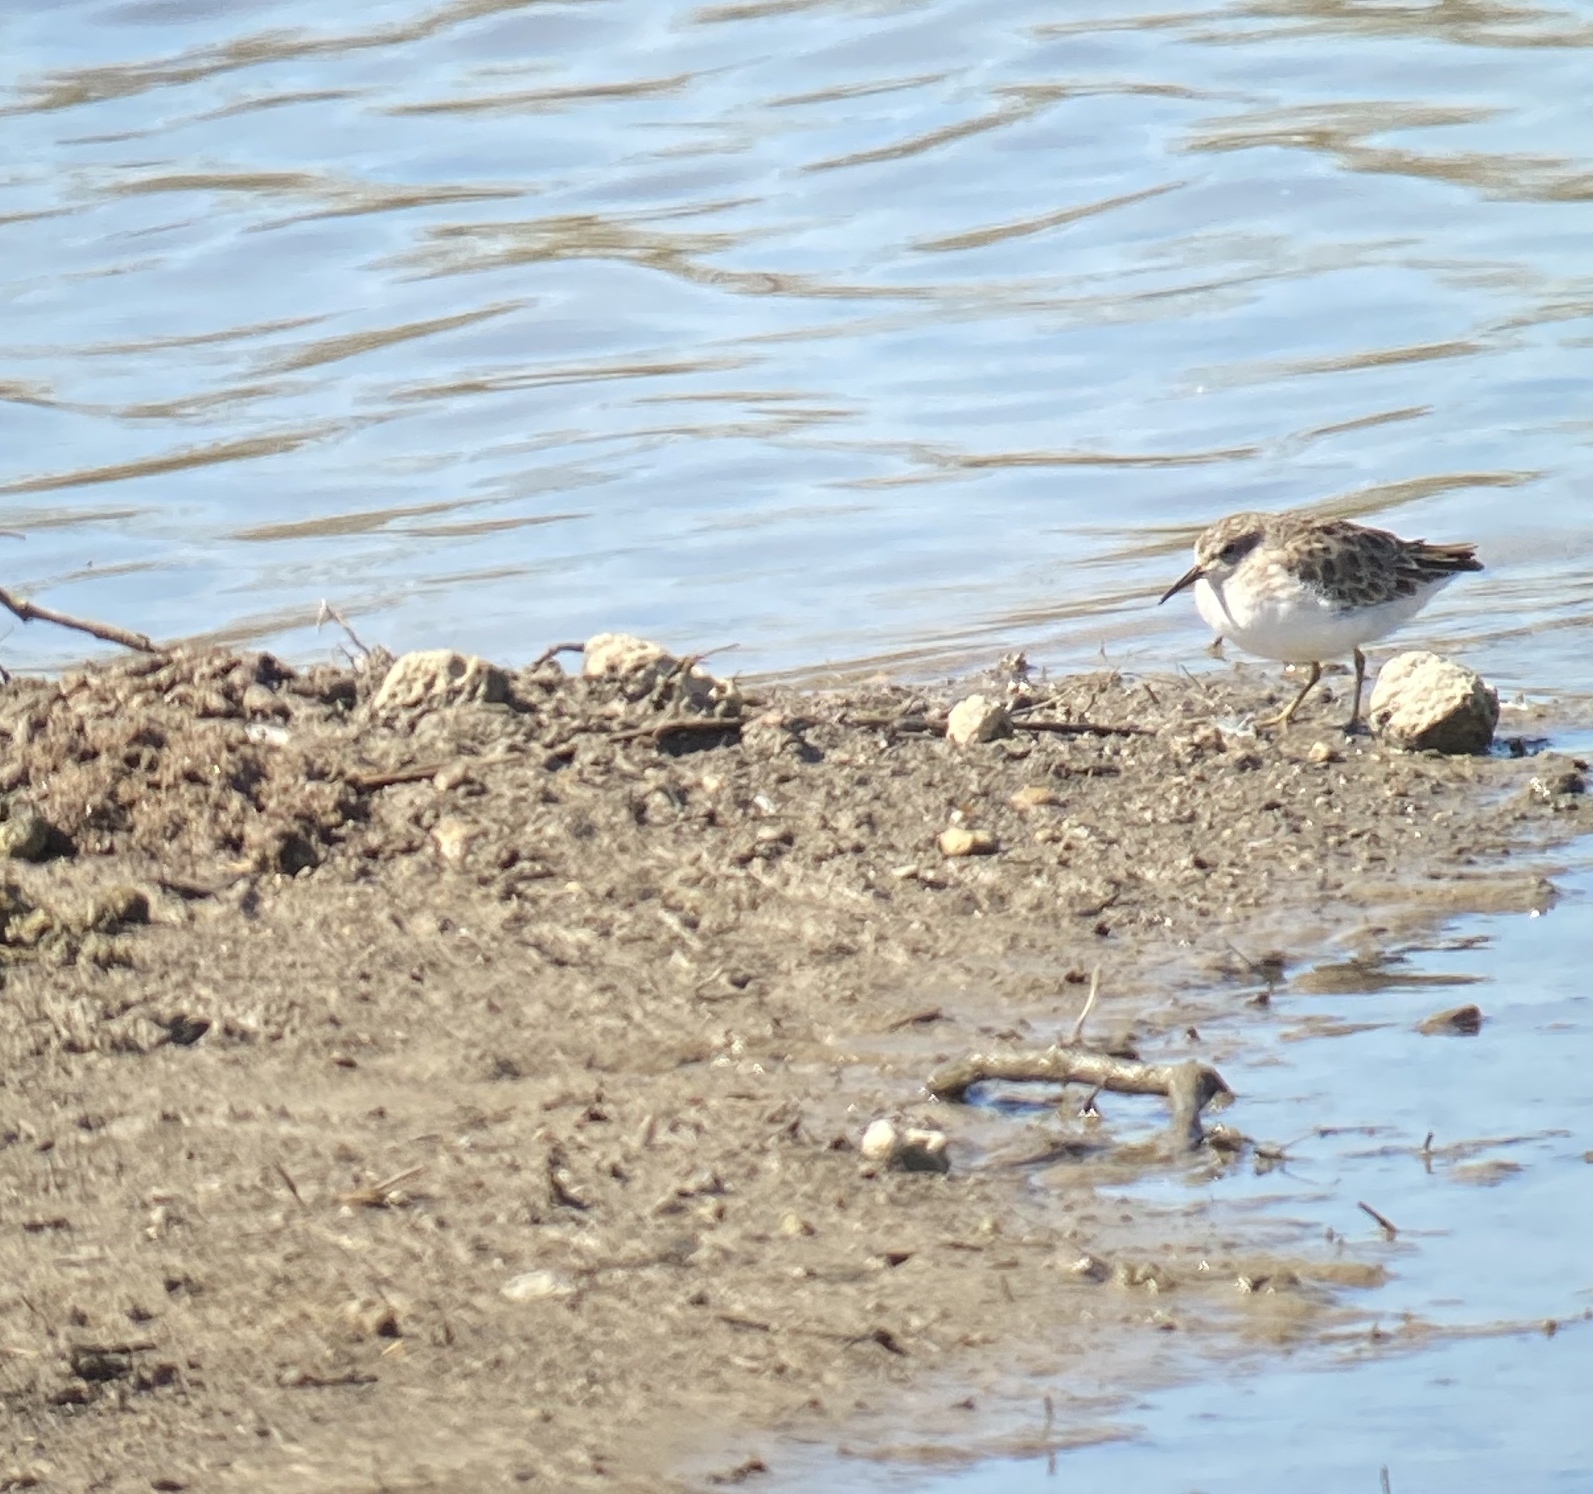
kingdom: Animalia
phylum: Chordata
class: Aves
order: Charadriiformes
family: Scolopacidae
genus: Calidris
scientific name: Calidris minutilla
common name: Least sandpiper
